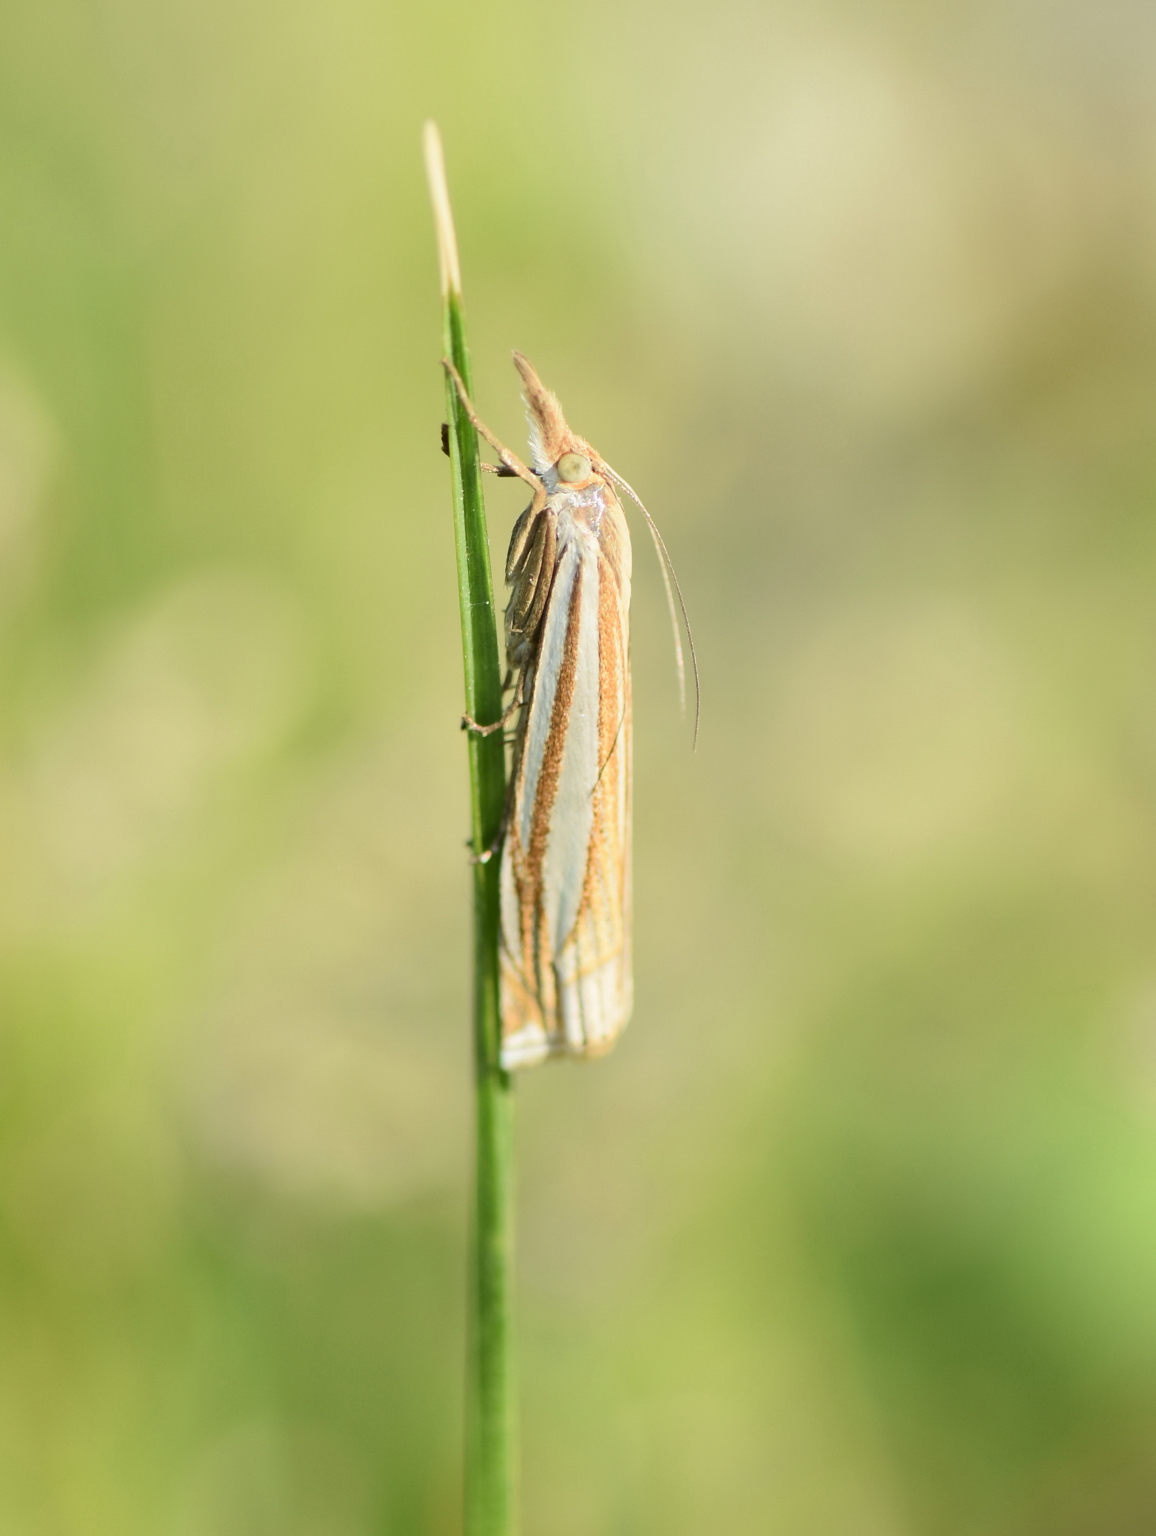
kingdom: Animalia
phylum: Arthropoda
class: Insecta
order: Lepidoptera
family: Crambidae
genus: Crambus
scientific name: Crambus laqueatellus
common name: Eastern grass-veneer
